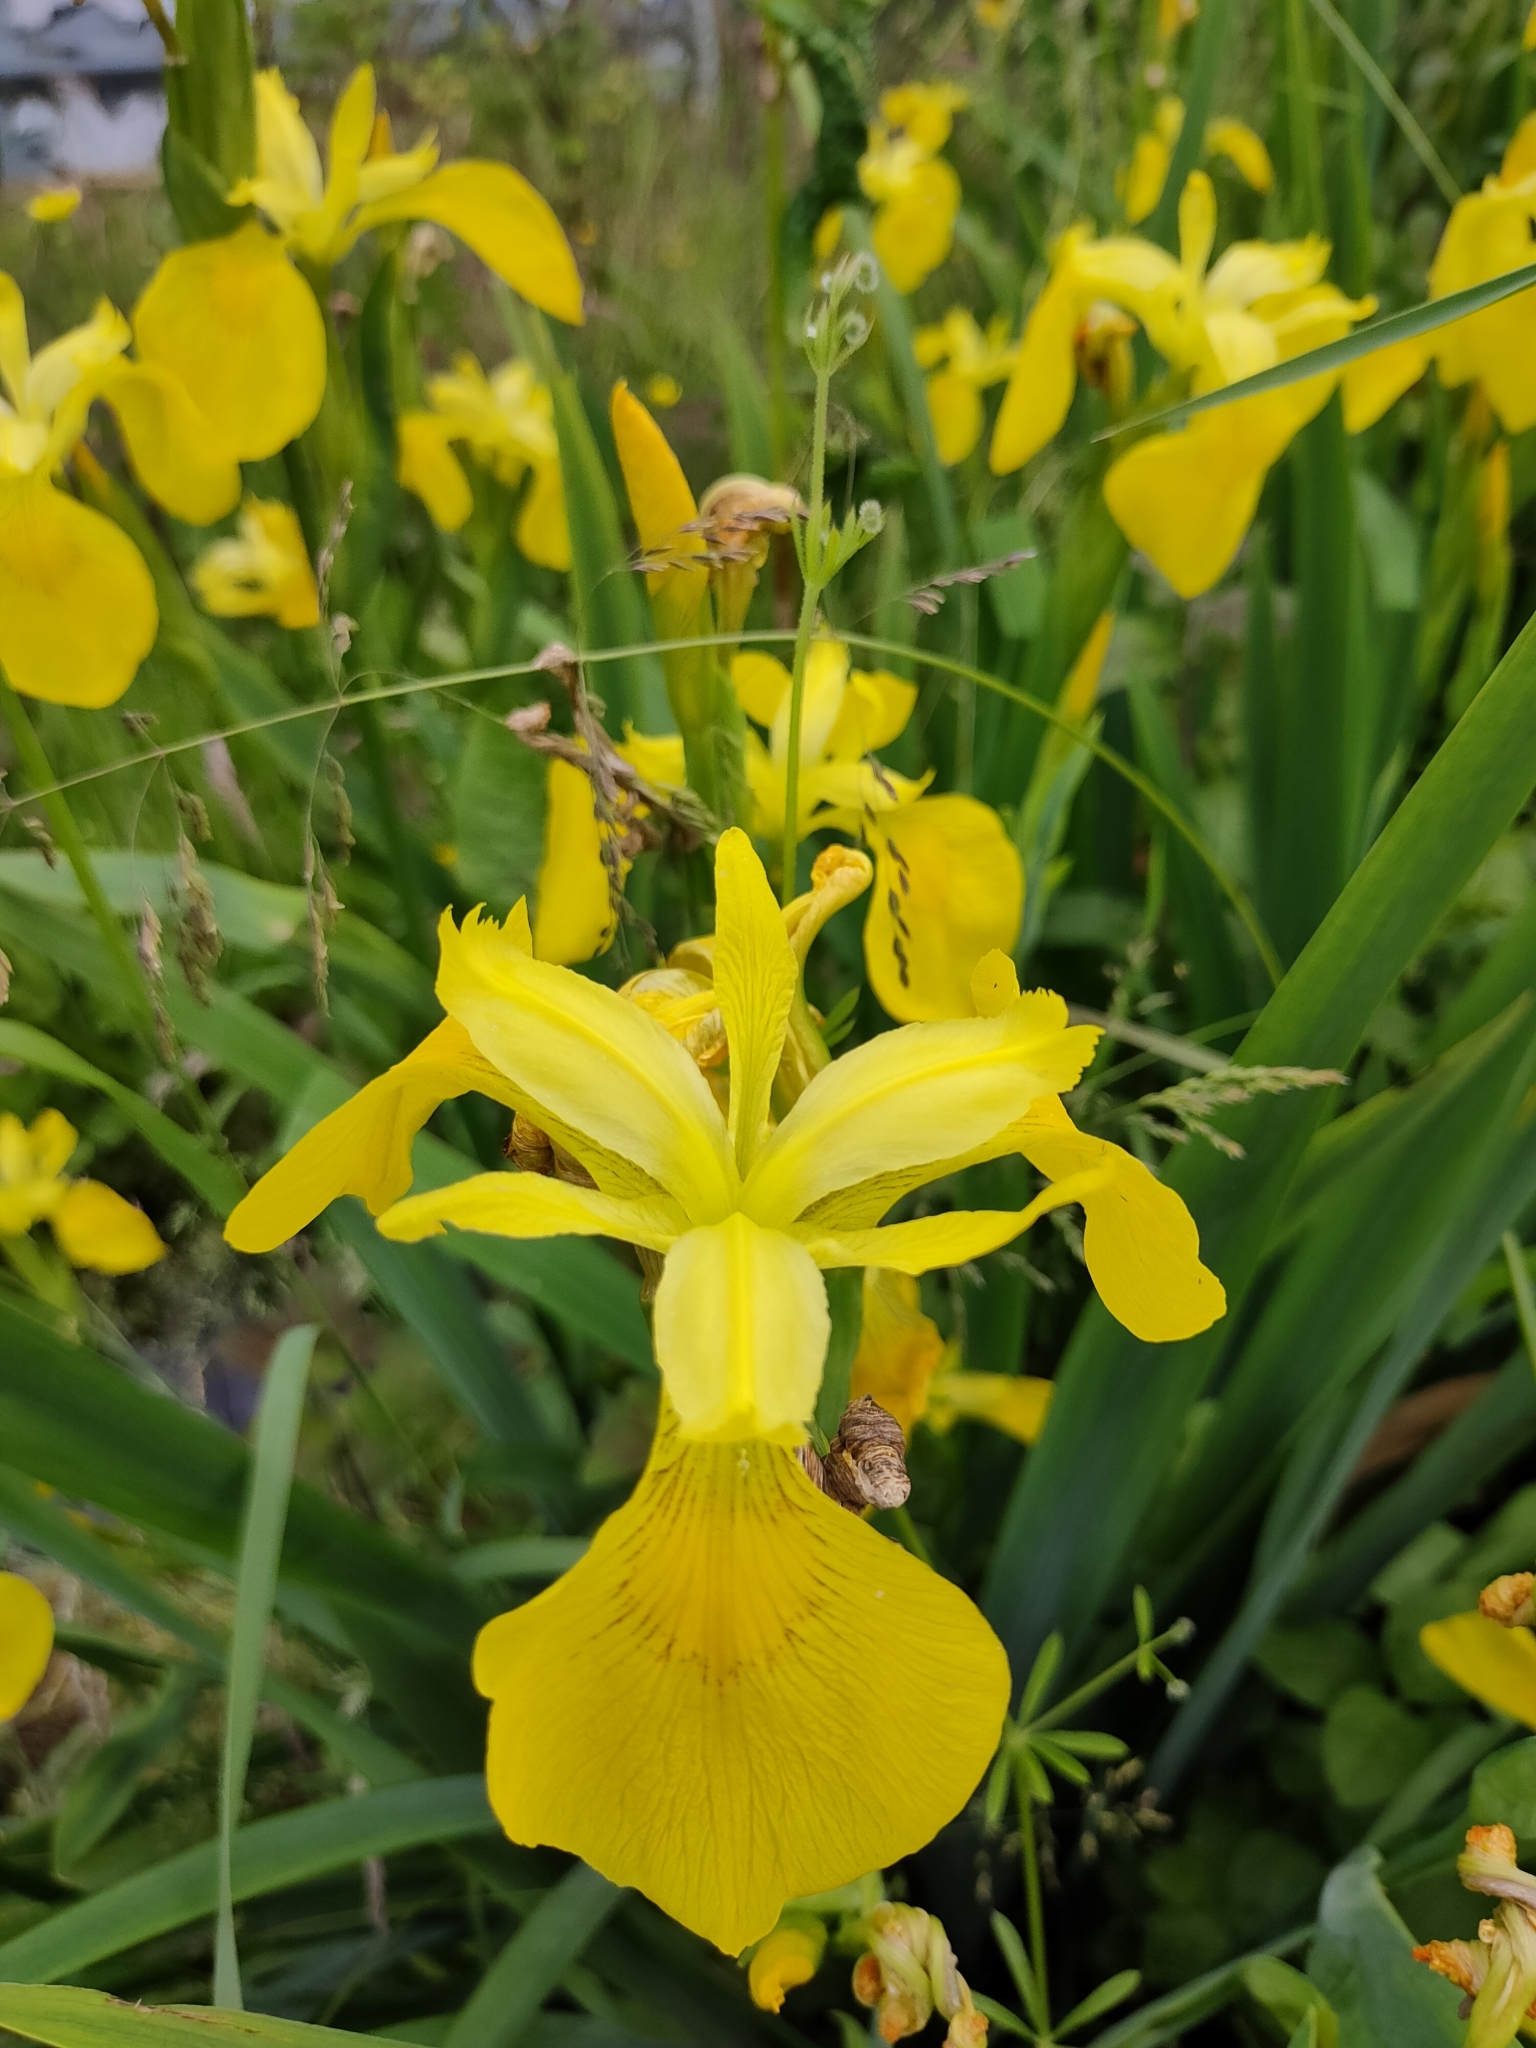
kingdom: Plantae
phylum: Tracheophyta
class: Liliopsida
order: Asparagales
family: Iridaceae
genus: Iris
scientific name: Iris pseudacorus
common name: Yellow flag
